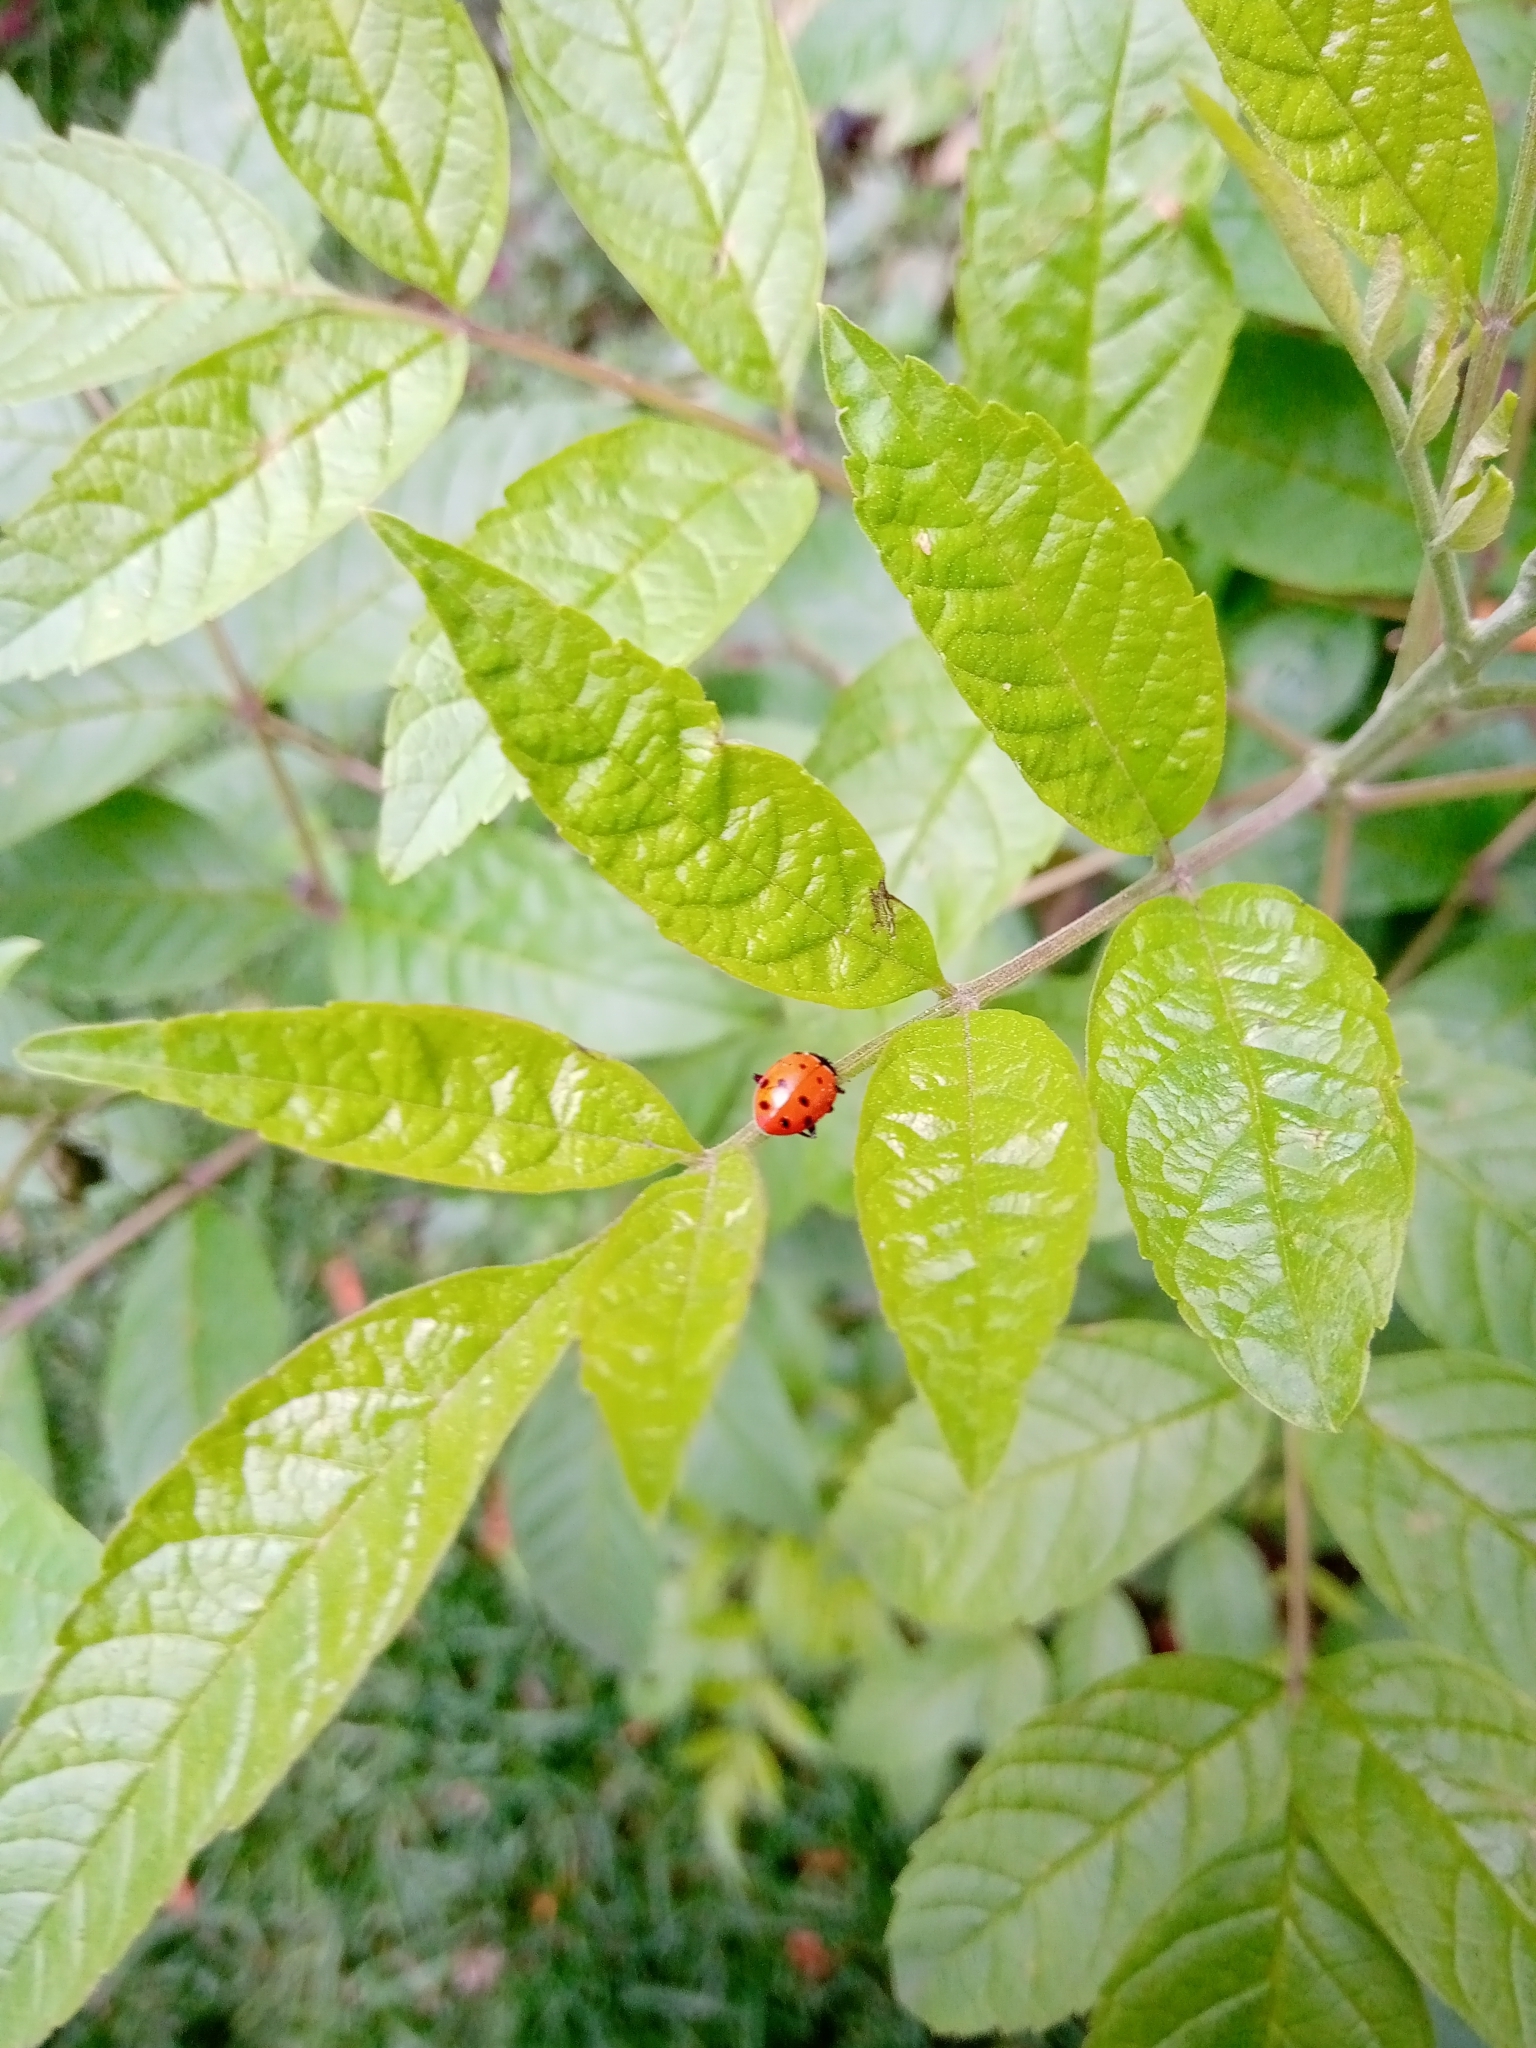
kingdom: Animalia
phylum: Arthropoda
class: Insecta
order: Coleoptera
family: Coccinellidae
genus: Hippodamia
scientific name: Hippodamia convergens
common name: Convergent lady beetle
